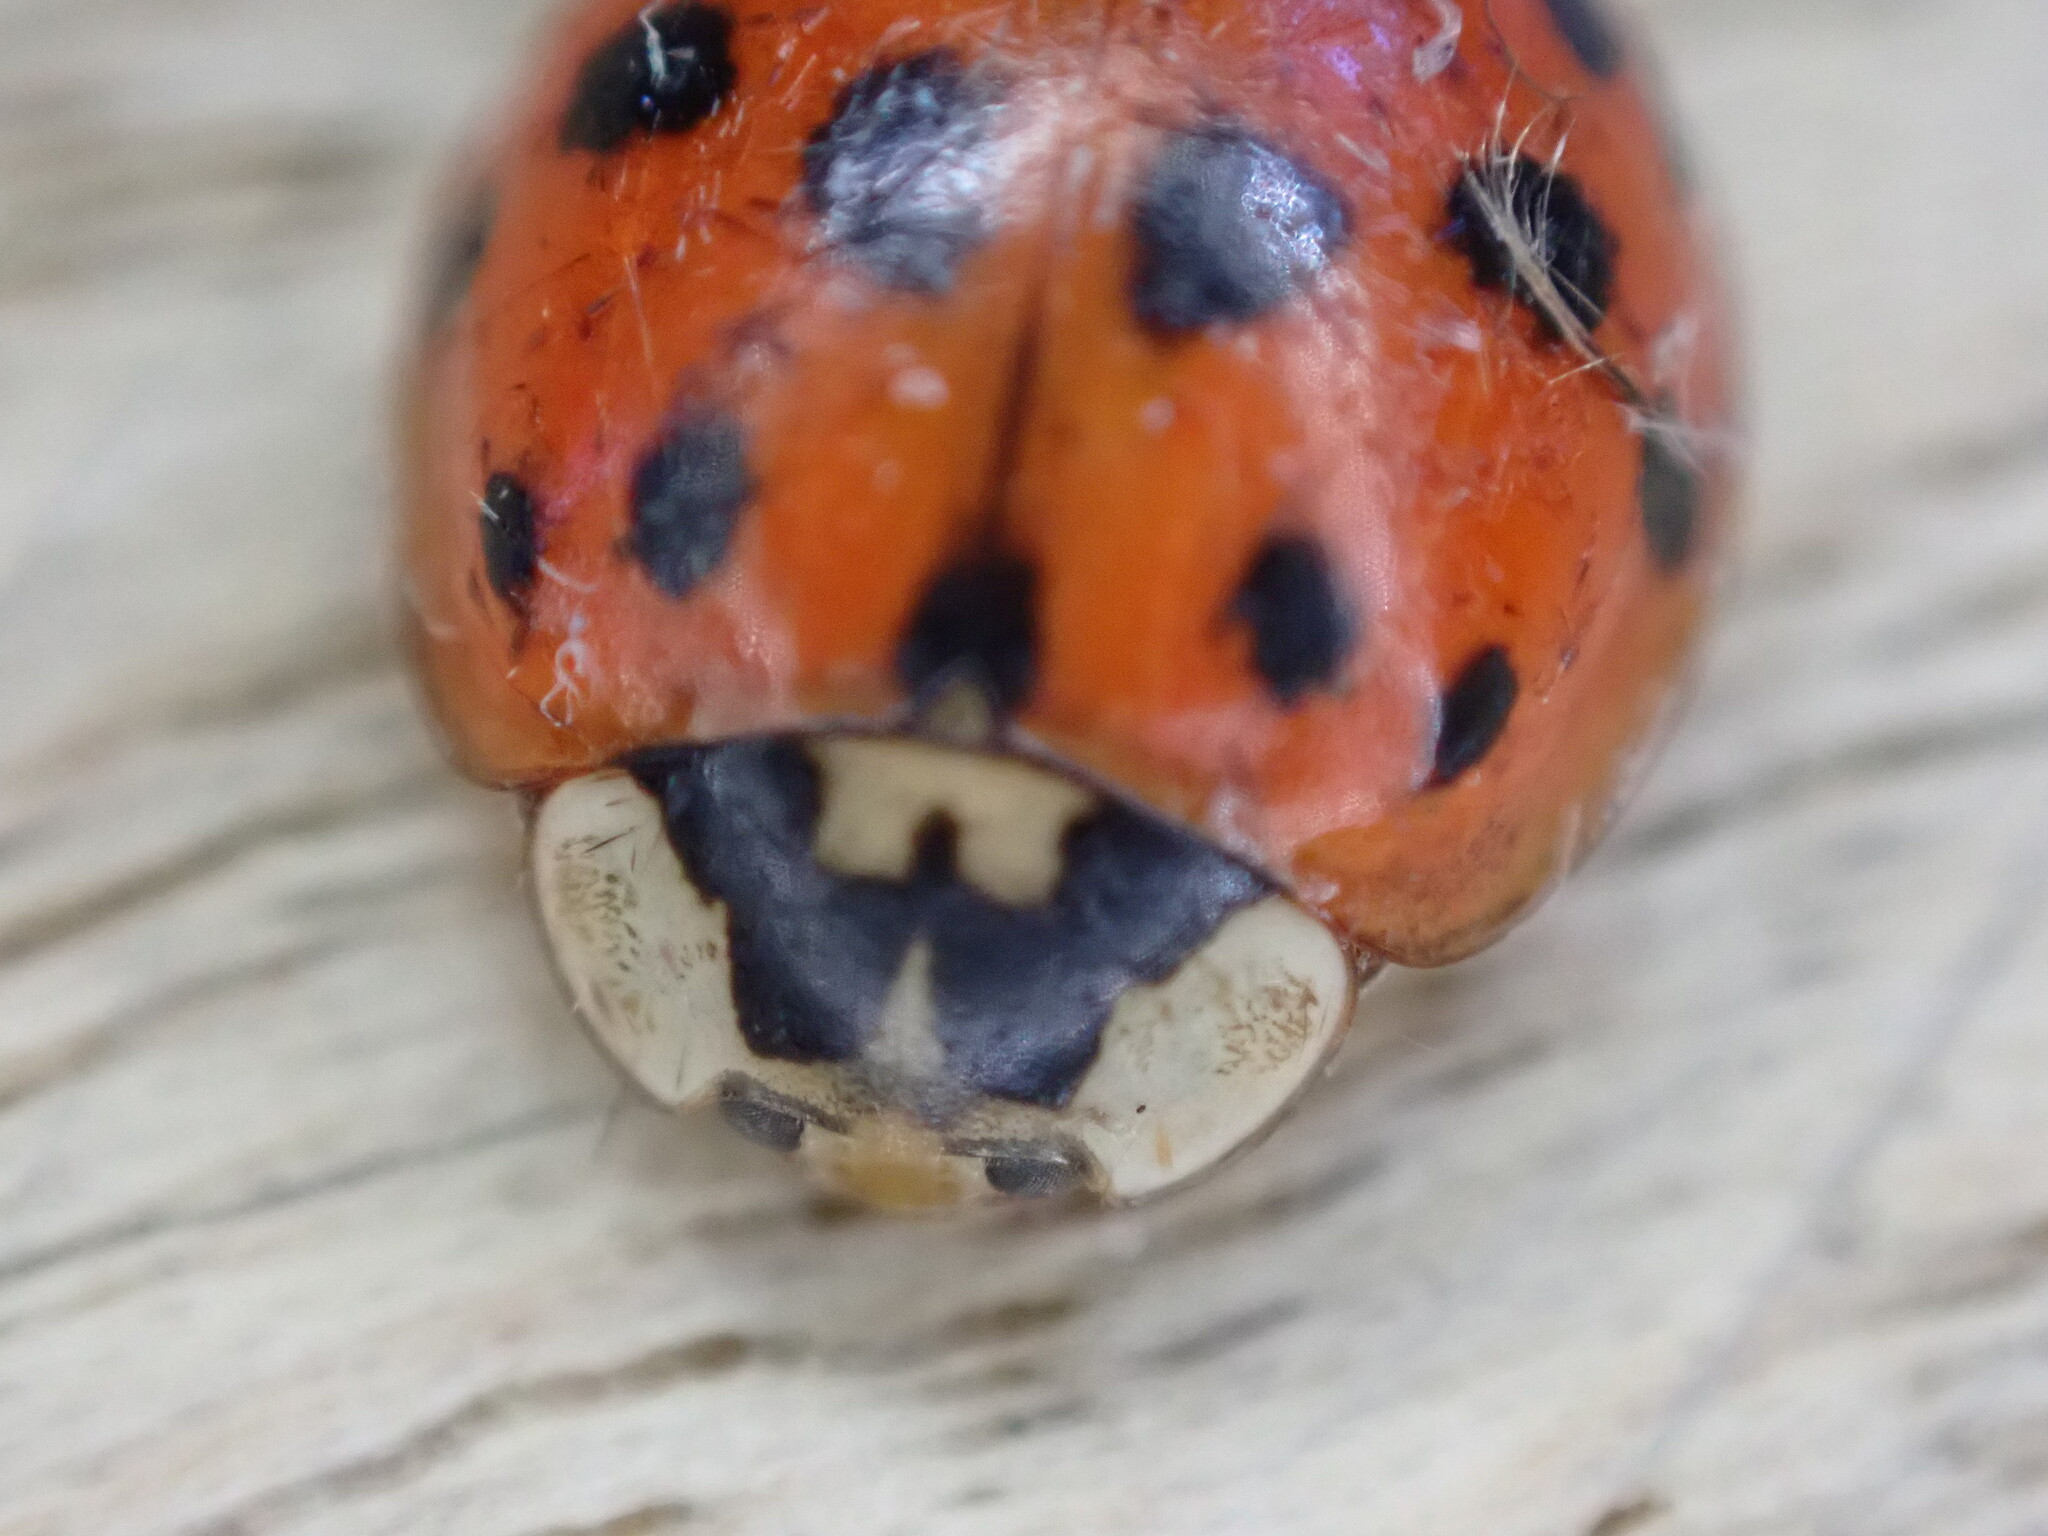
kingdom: Animalia
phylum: Arthropoda
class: Insecta
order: Coleoptera
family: Coccinellidae
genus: Harmonia
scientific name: Harmonia axyridis
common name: Harlequin ladybird
